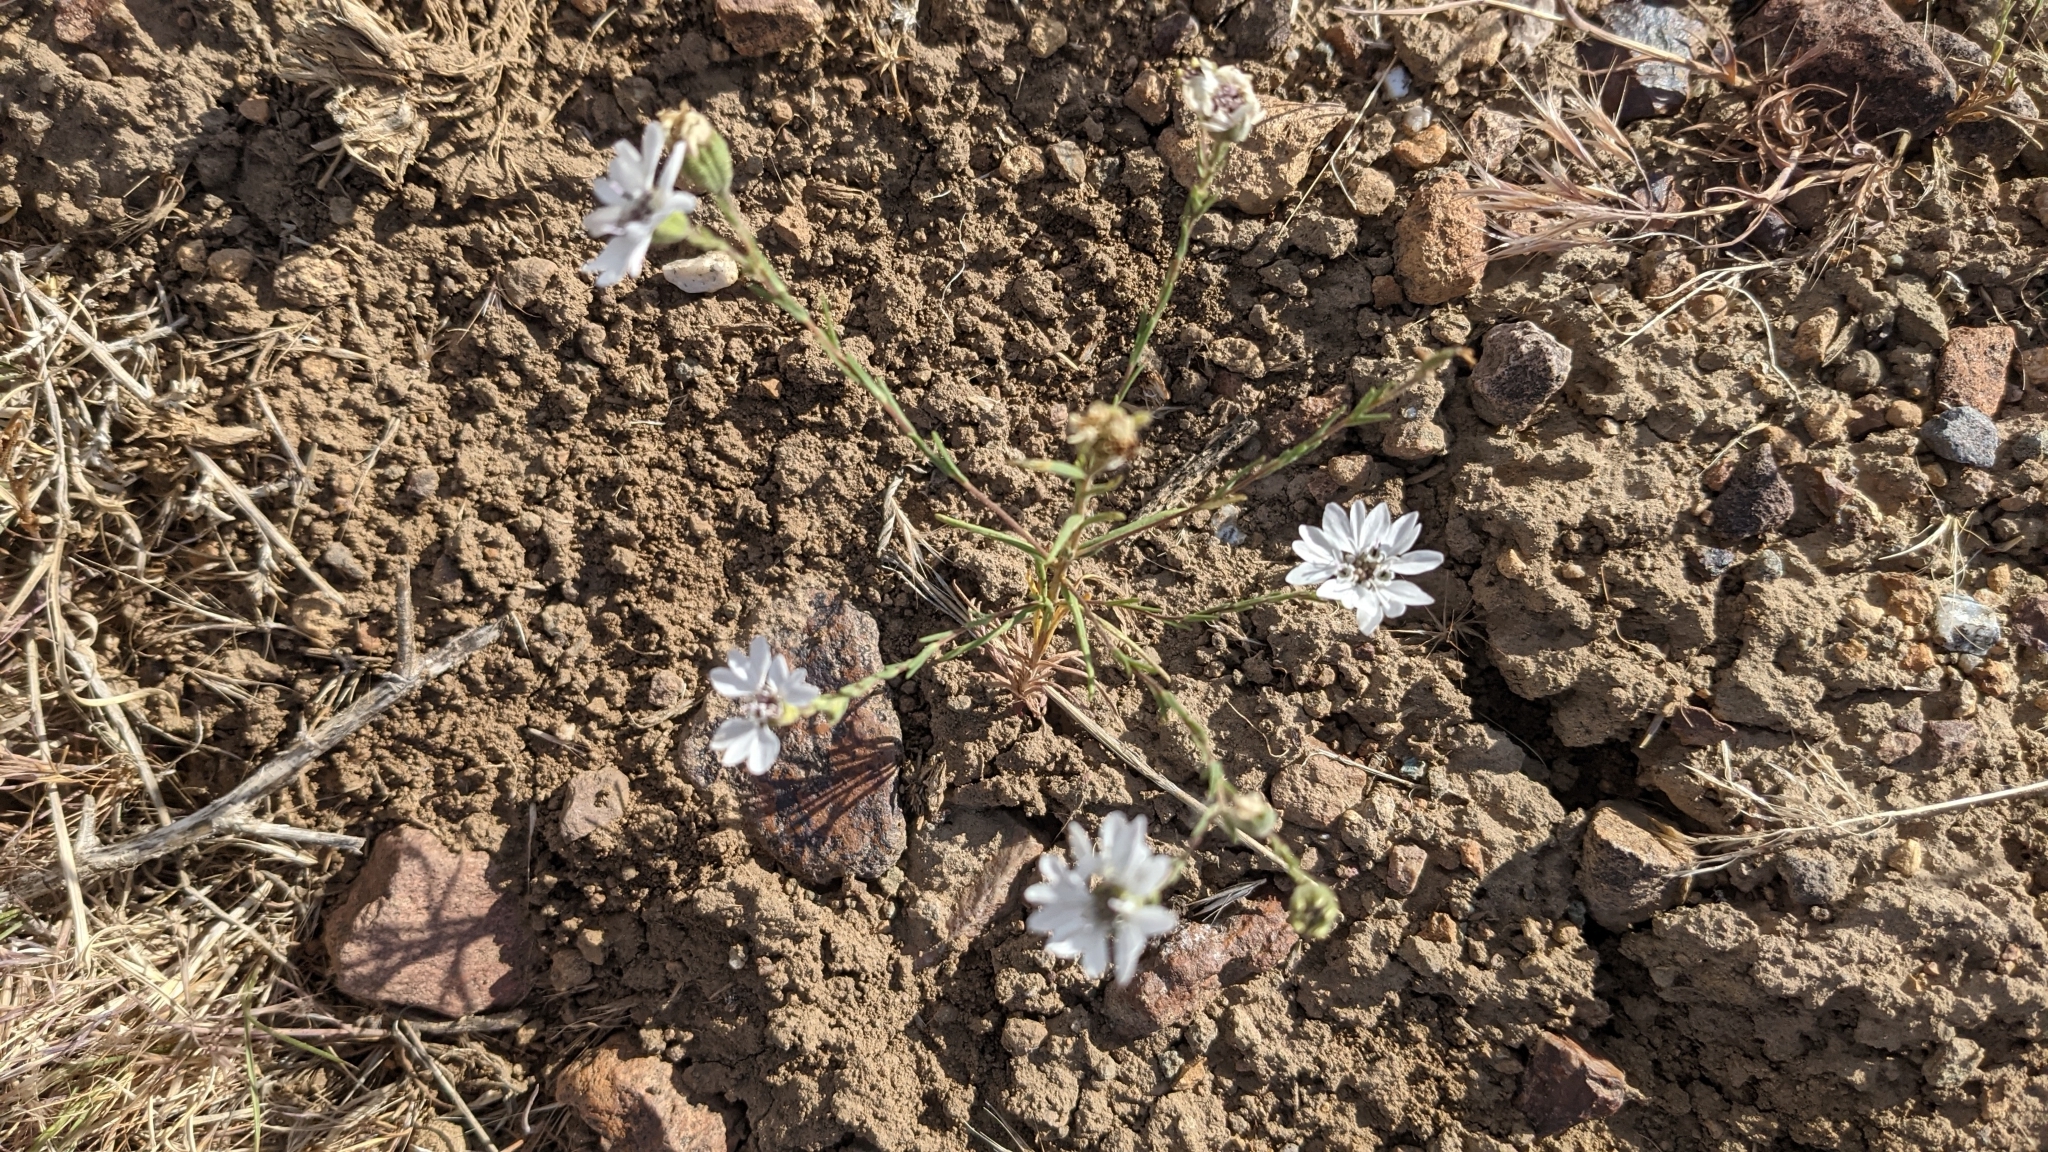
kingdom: Plantae
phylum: Tracheophyta
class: Magnoliopsida
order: Asterales
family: Asteraceae
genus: Blepharipappus
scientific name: Blepharipappus scaber
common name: Rough blepharipappus
